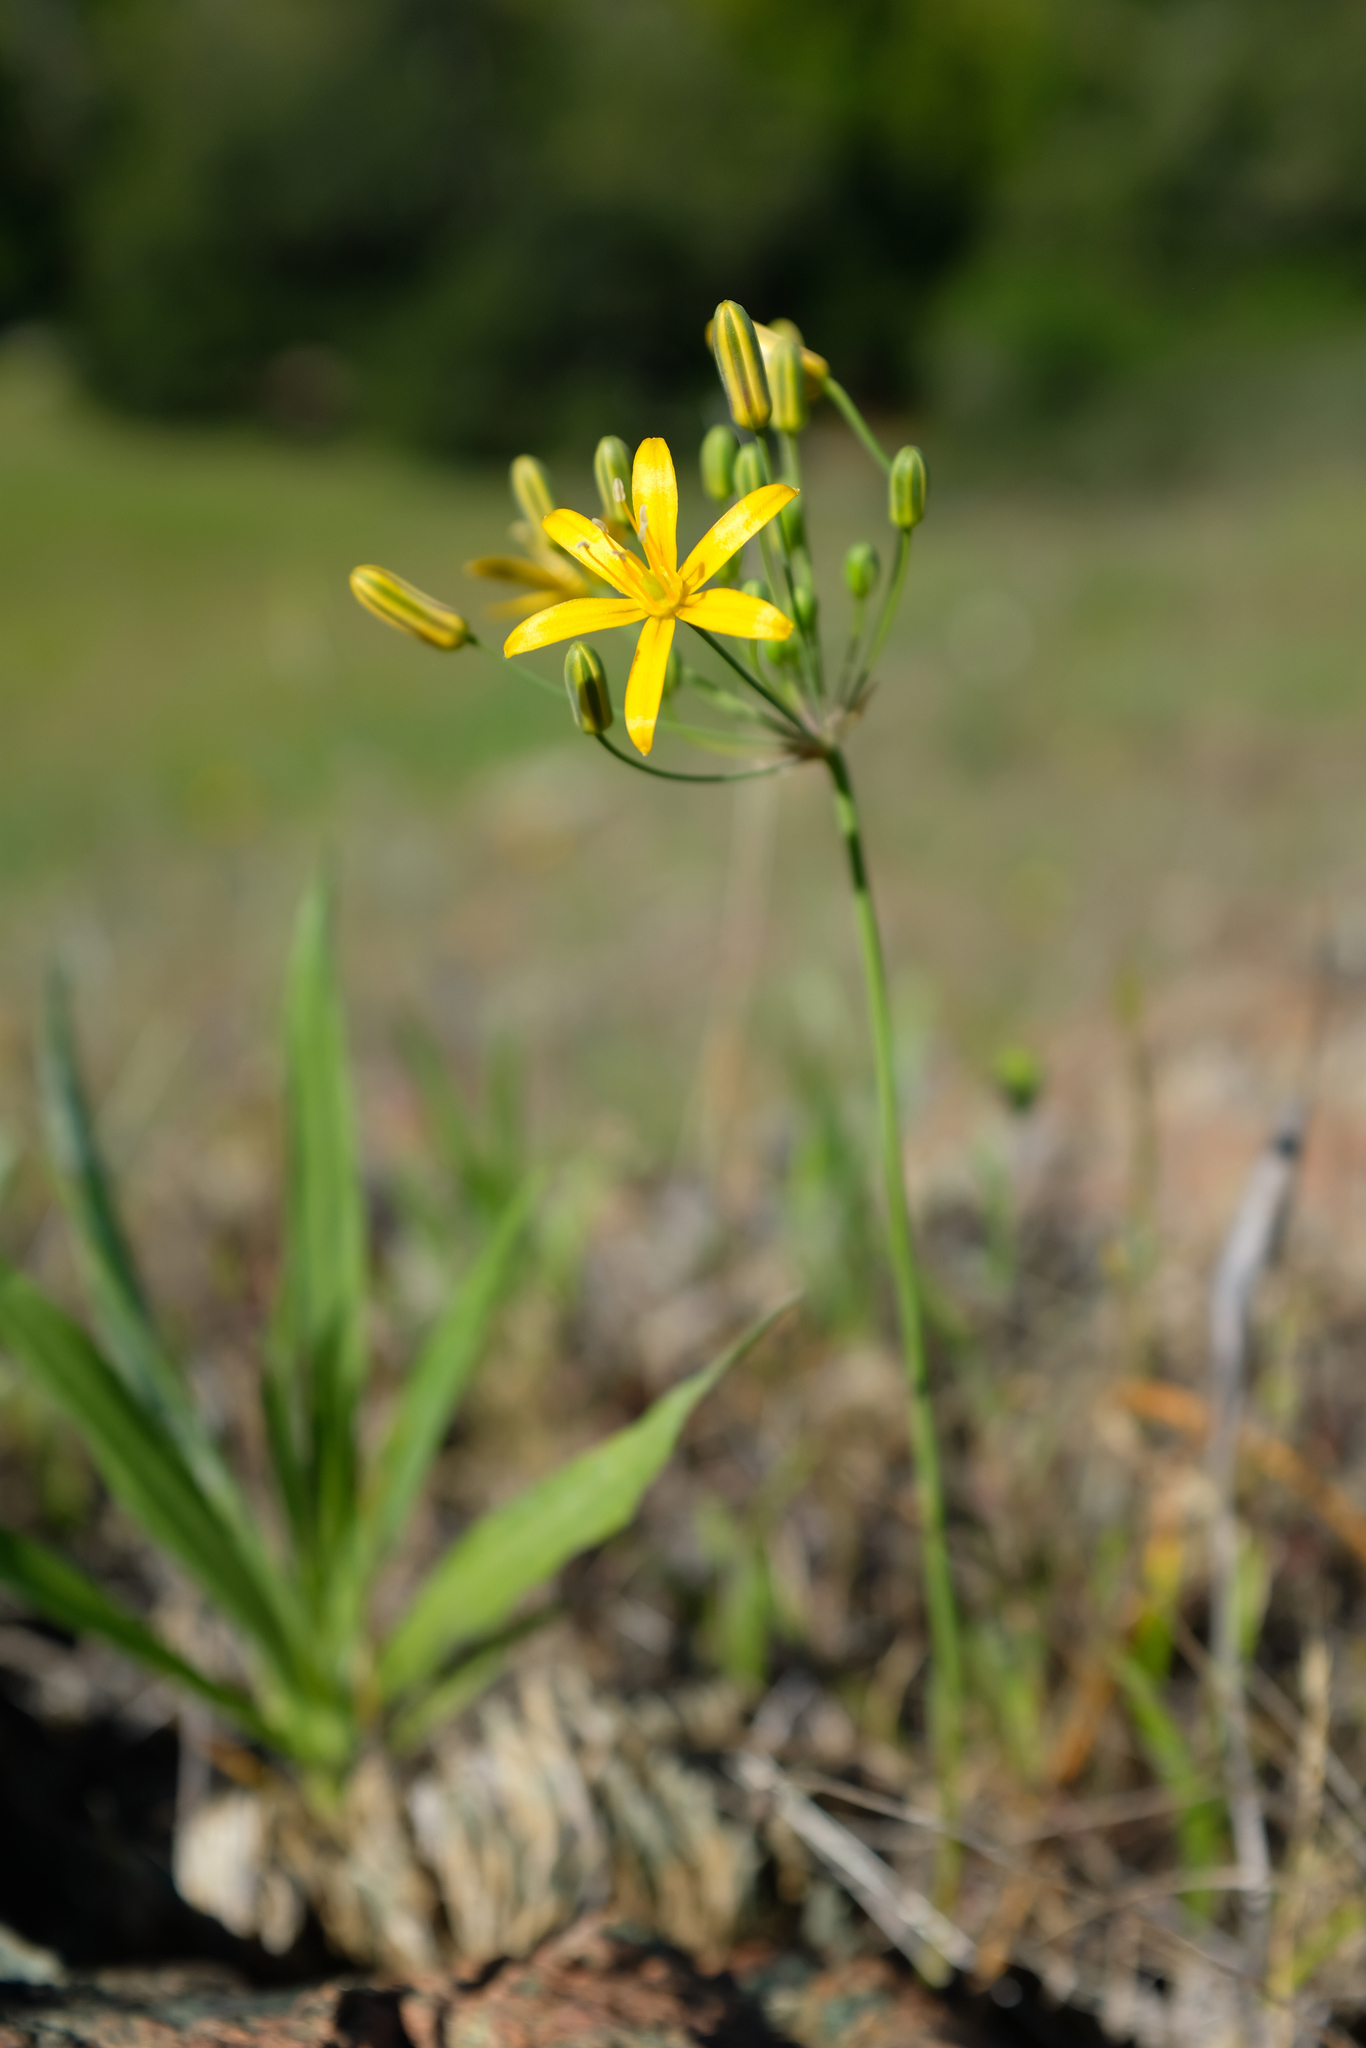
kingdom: Plantae
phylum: Tracheophyta
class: Liliopsida
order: Asparagales
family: Asparagaceae
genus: Bloomeria
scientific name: Bloomeria crocea
